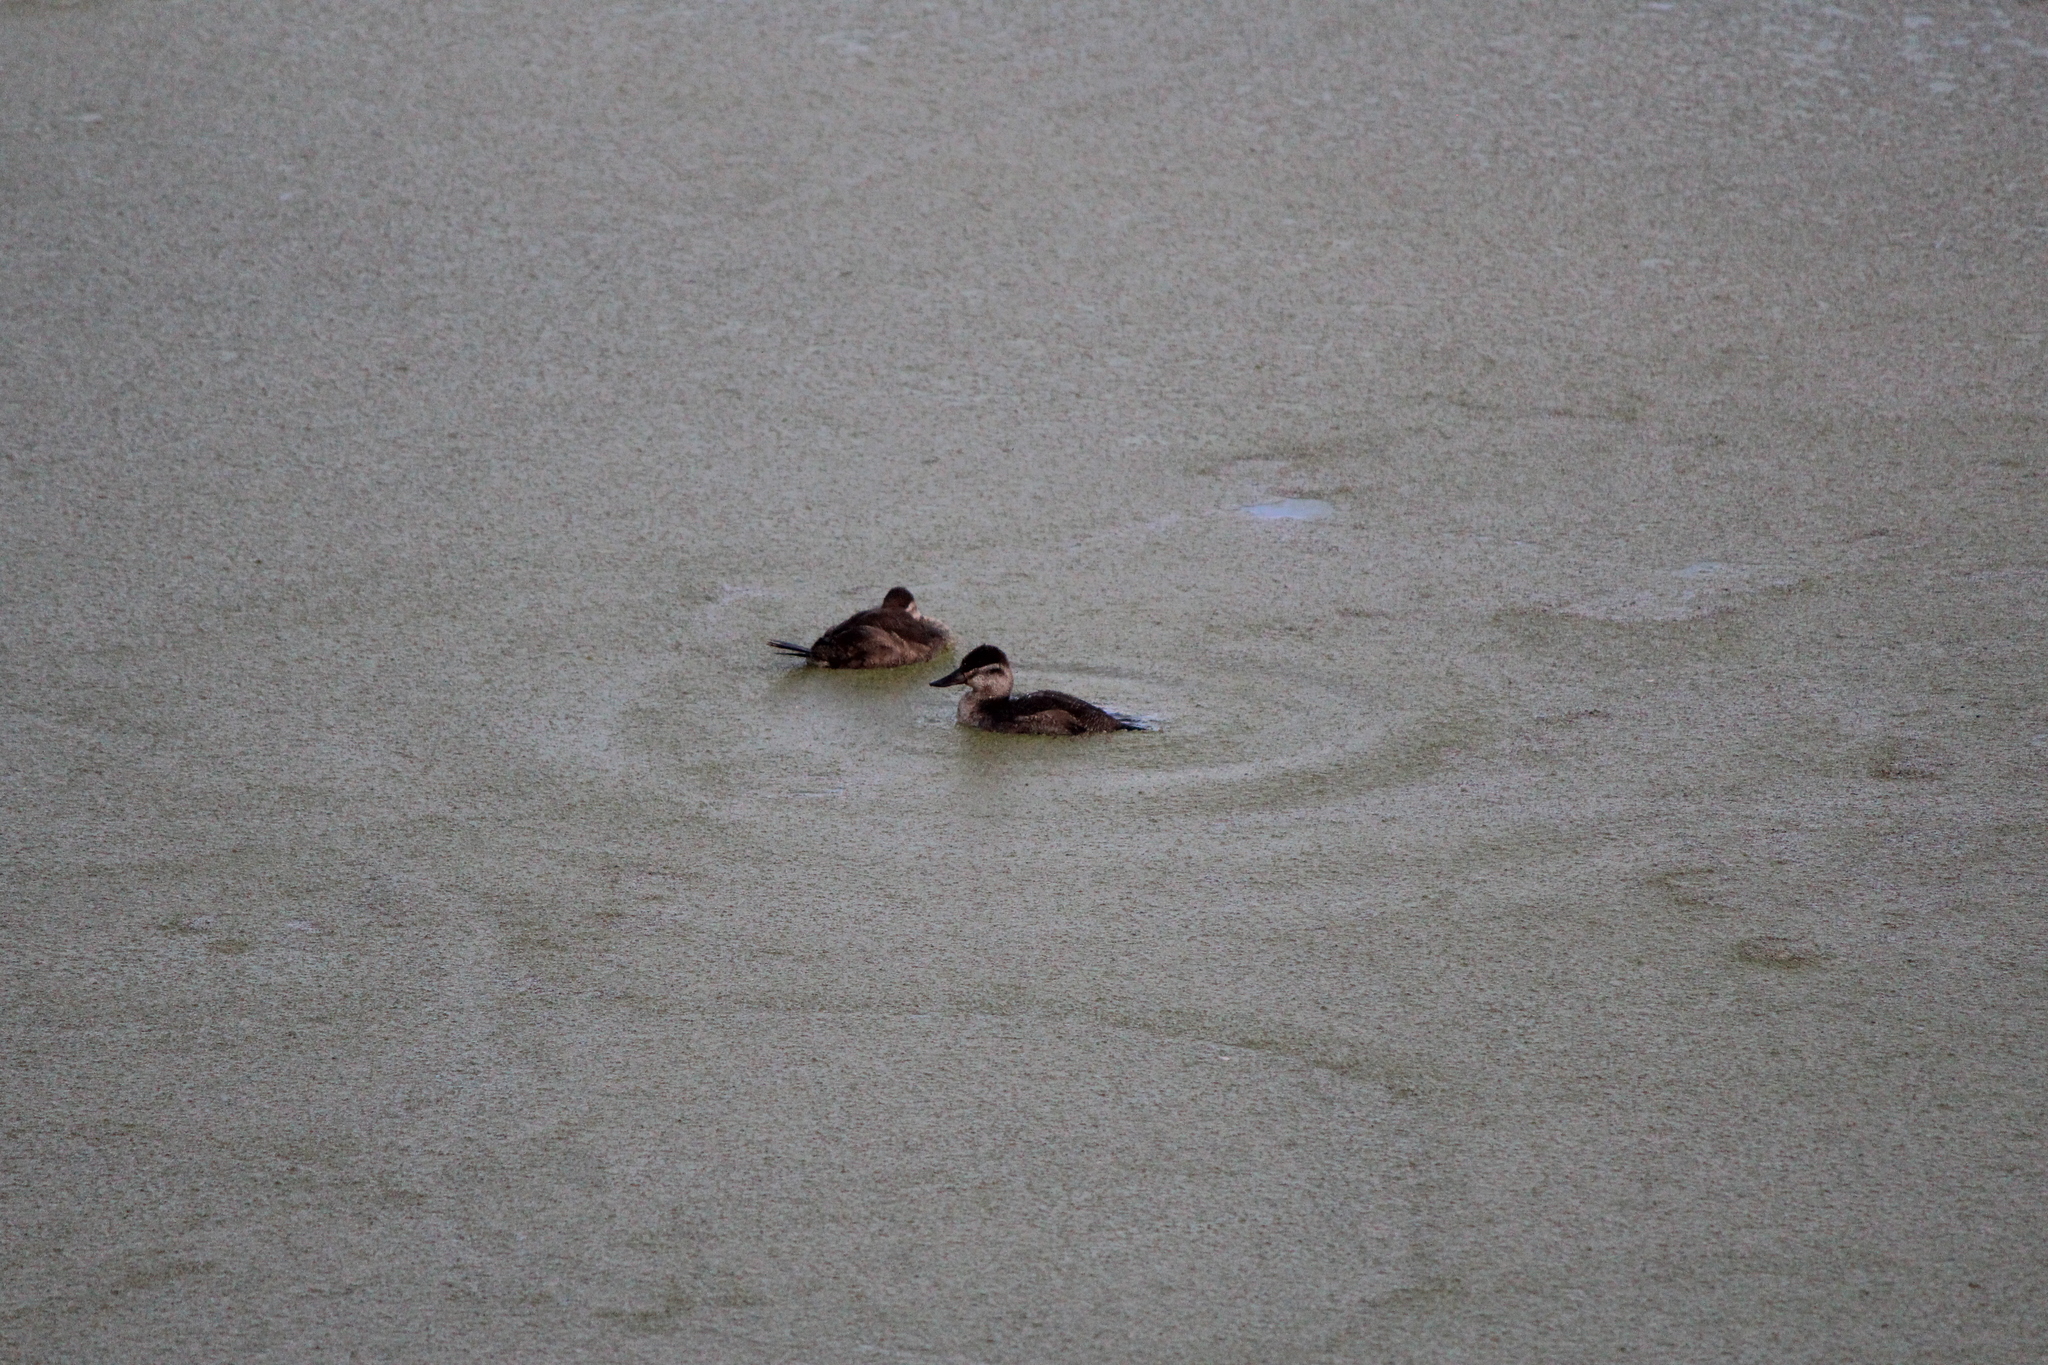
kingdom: Animalia
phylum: Chordata
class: Aves
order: Anseriformes
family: Anatidae
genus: Oxyura
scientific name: Oxyura jamaicensis
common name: Ruddy duck
